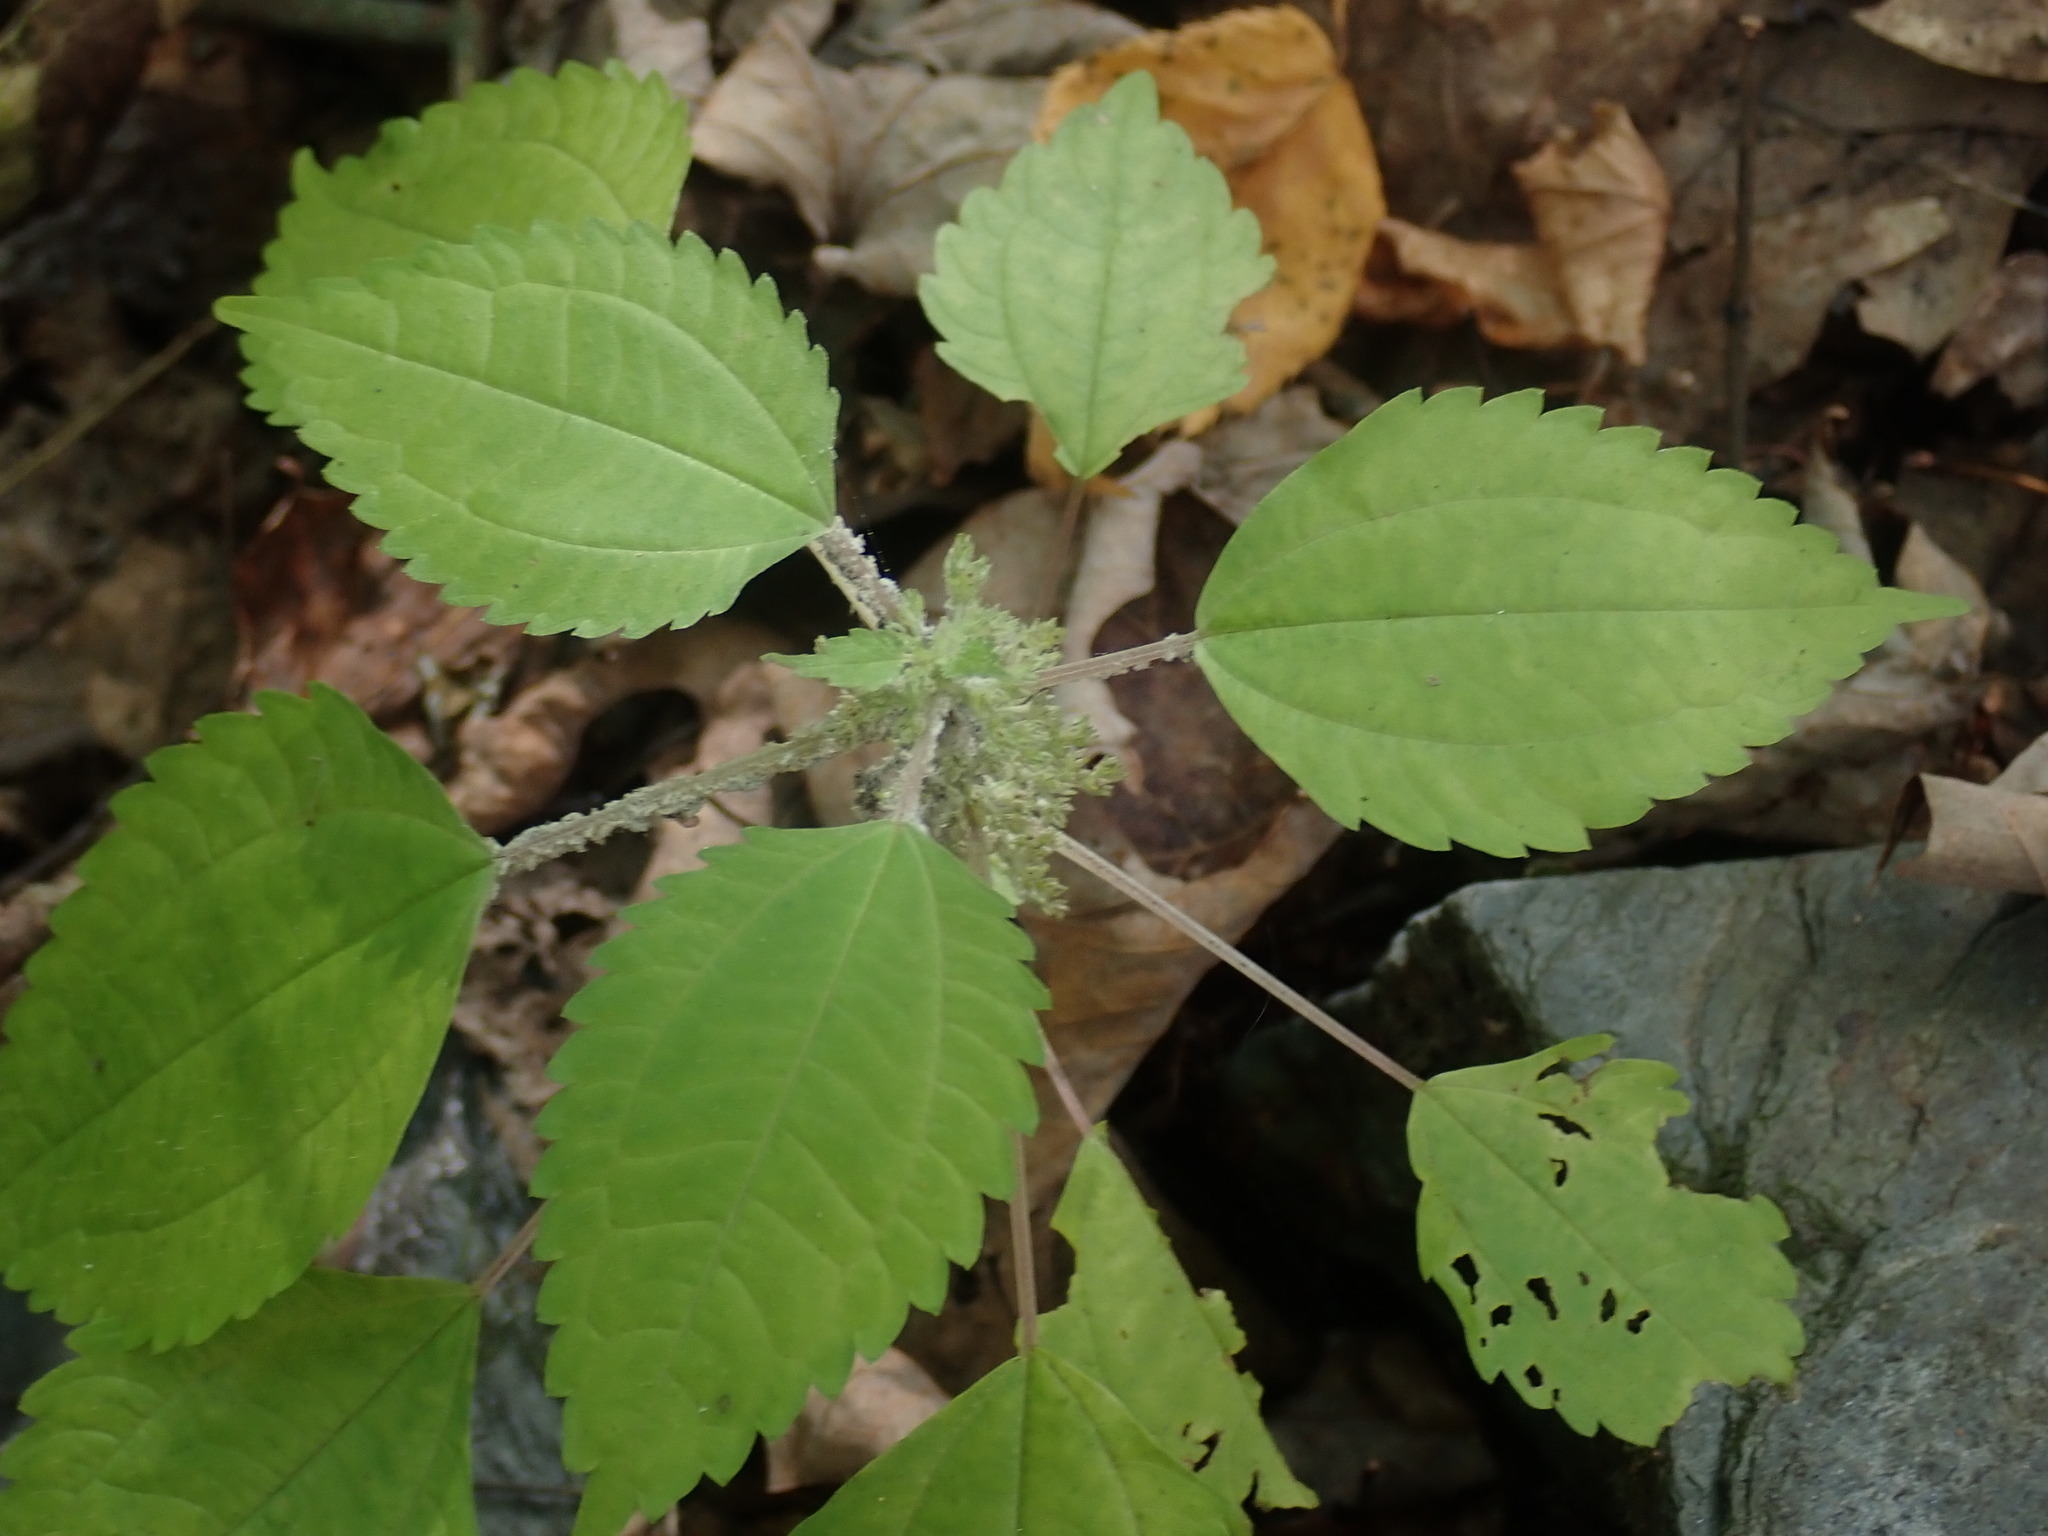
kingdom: Plantae
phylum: Tracheophyta
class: Magnoliopsida
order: Rosales
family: Urticaceae
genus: Pilea
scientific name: Pilea pumila
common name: Clearweed
